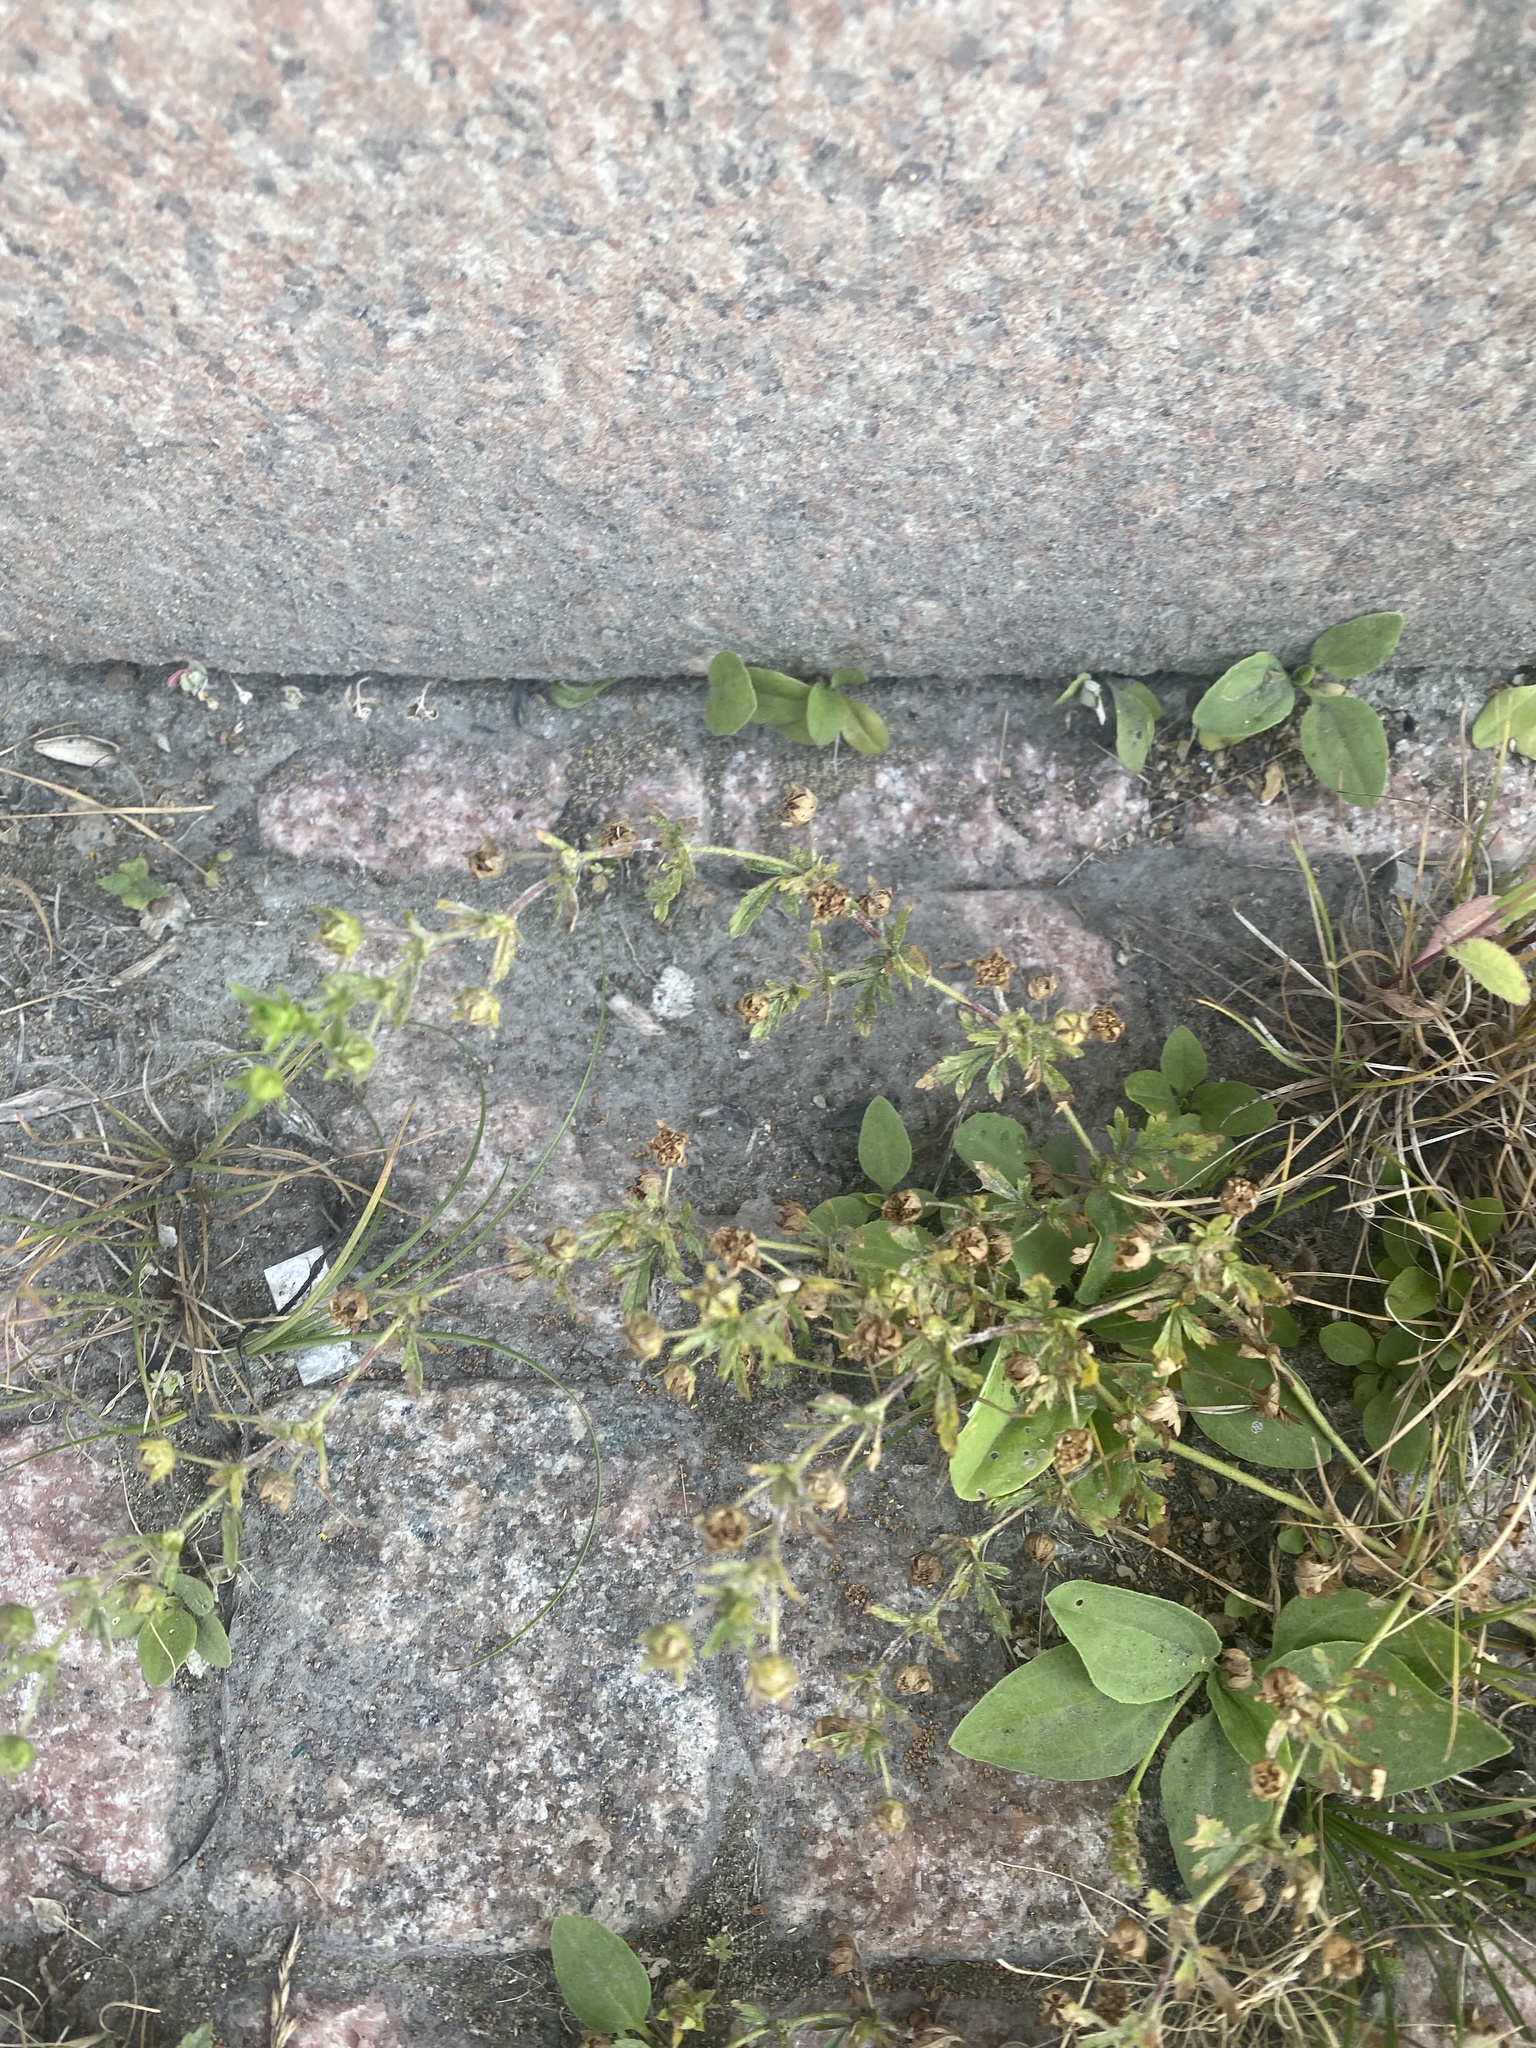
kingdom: Plantae
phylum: Tracheophyta
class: Magnoliopsida
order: Rosales
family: Rosaceae
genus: Potentilla
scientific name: Potentilla supina
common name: Prostrate cinquefoil
